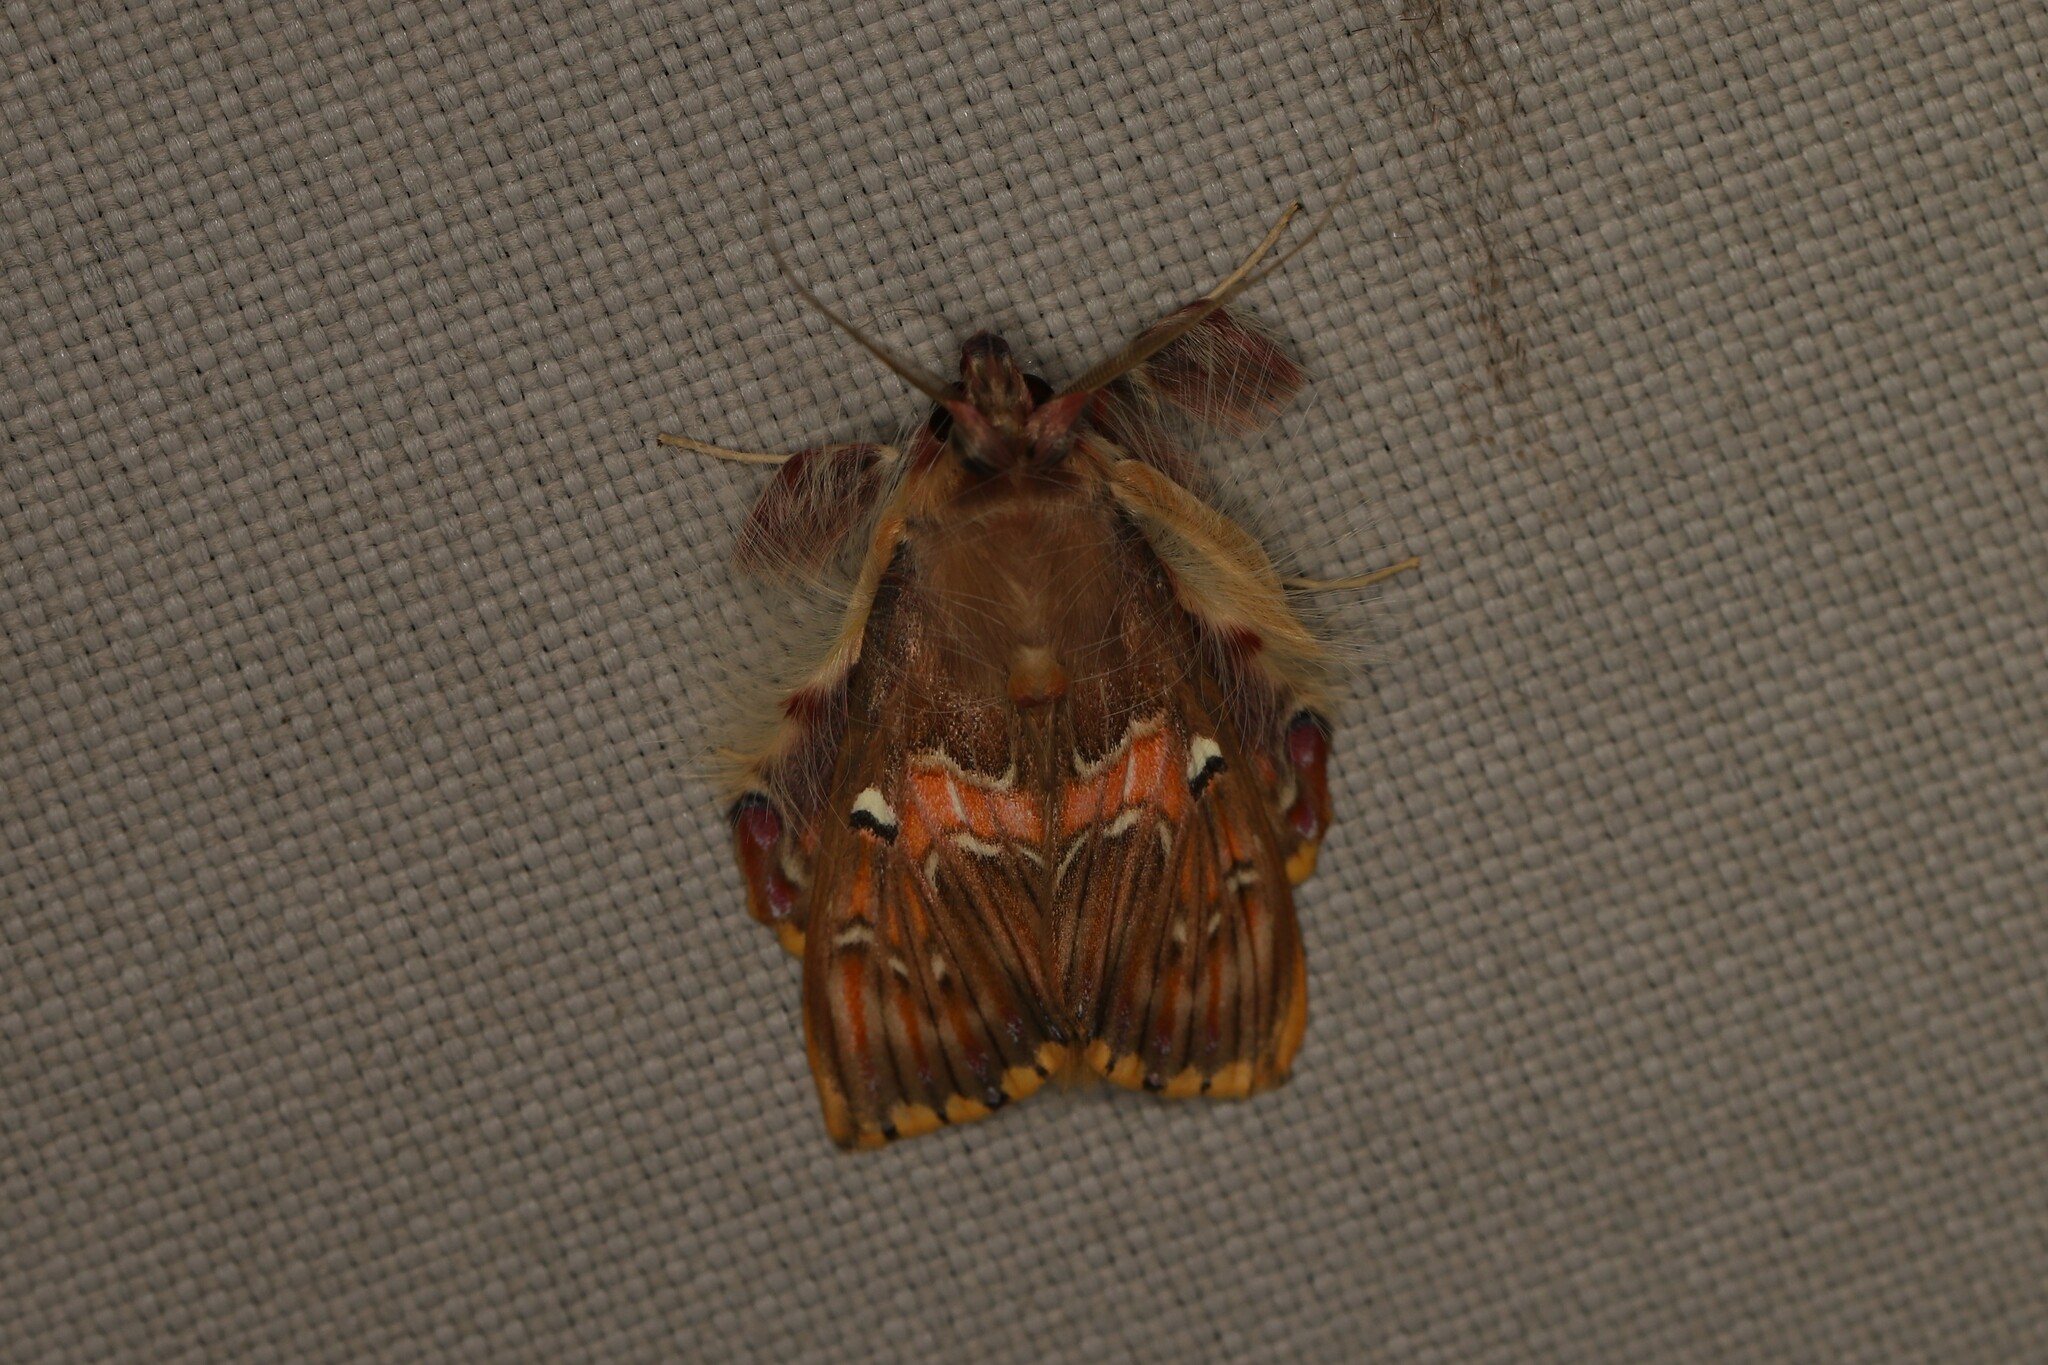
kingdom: Animalia
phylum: Arthropoda
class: Insecta
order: Lepidoptera
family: Erebidae
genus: Sosxetra
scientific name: Sosxetra grata
